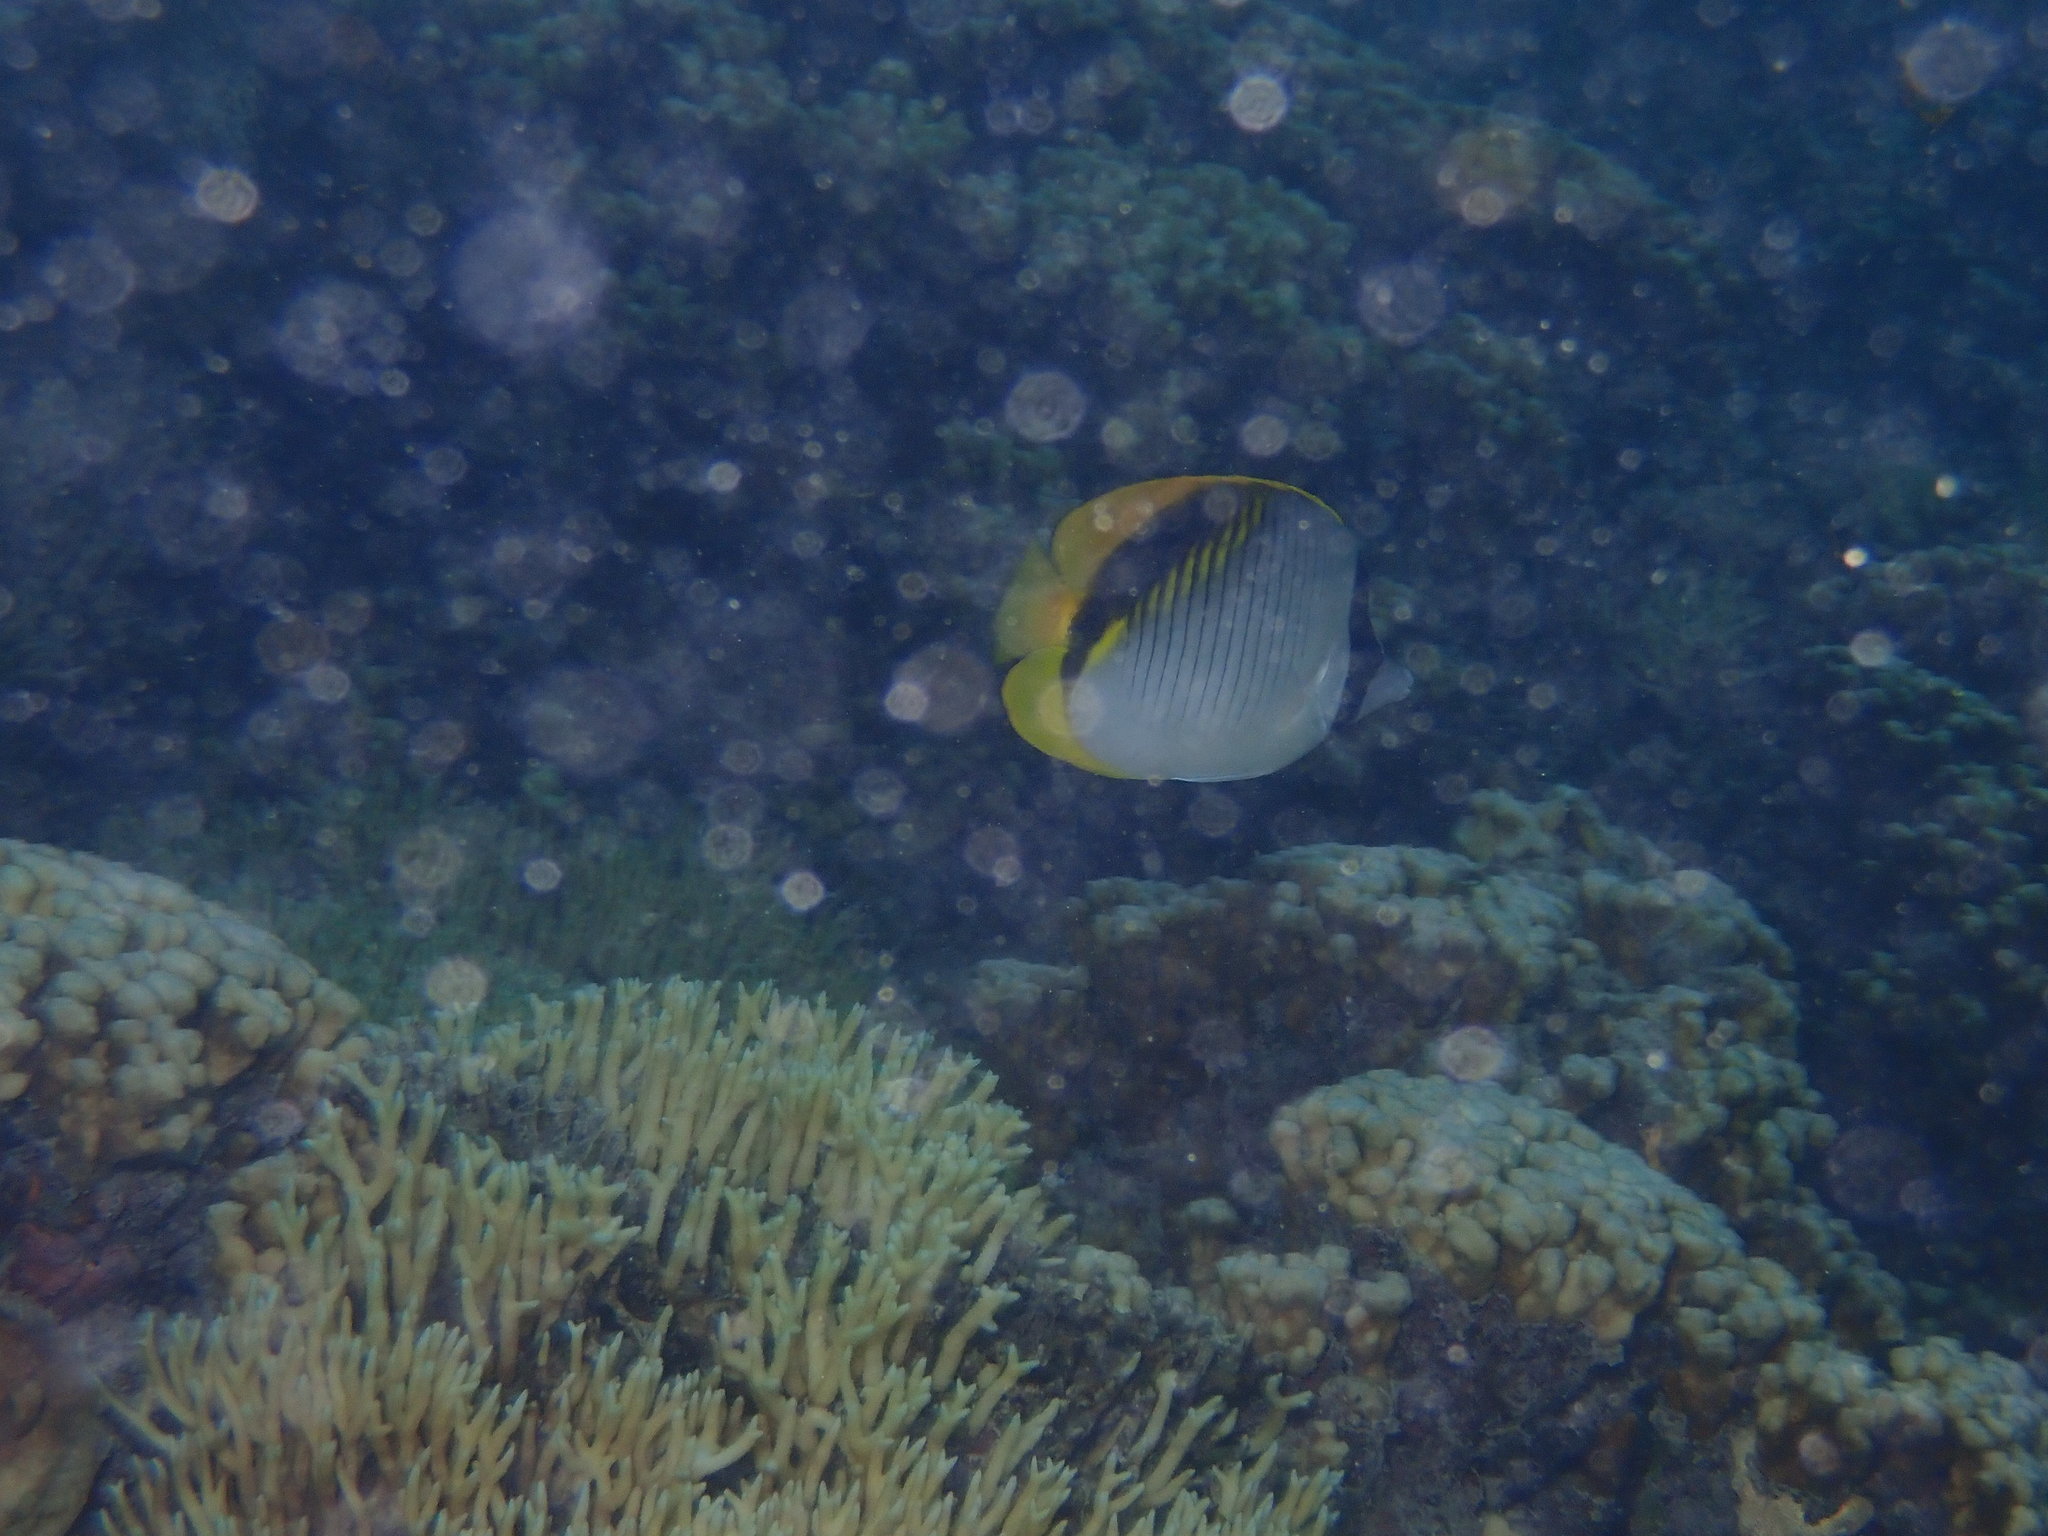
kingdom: Animalia
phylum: Chordata
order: Perciformes
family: Chaetodontidae
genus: Chaetodon
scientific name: Chaetodon lineolatus
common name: Lined butterflyfish
